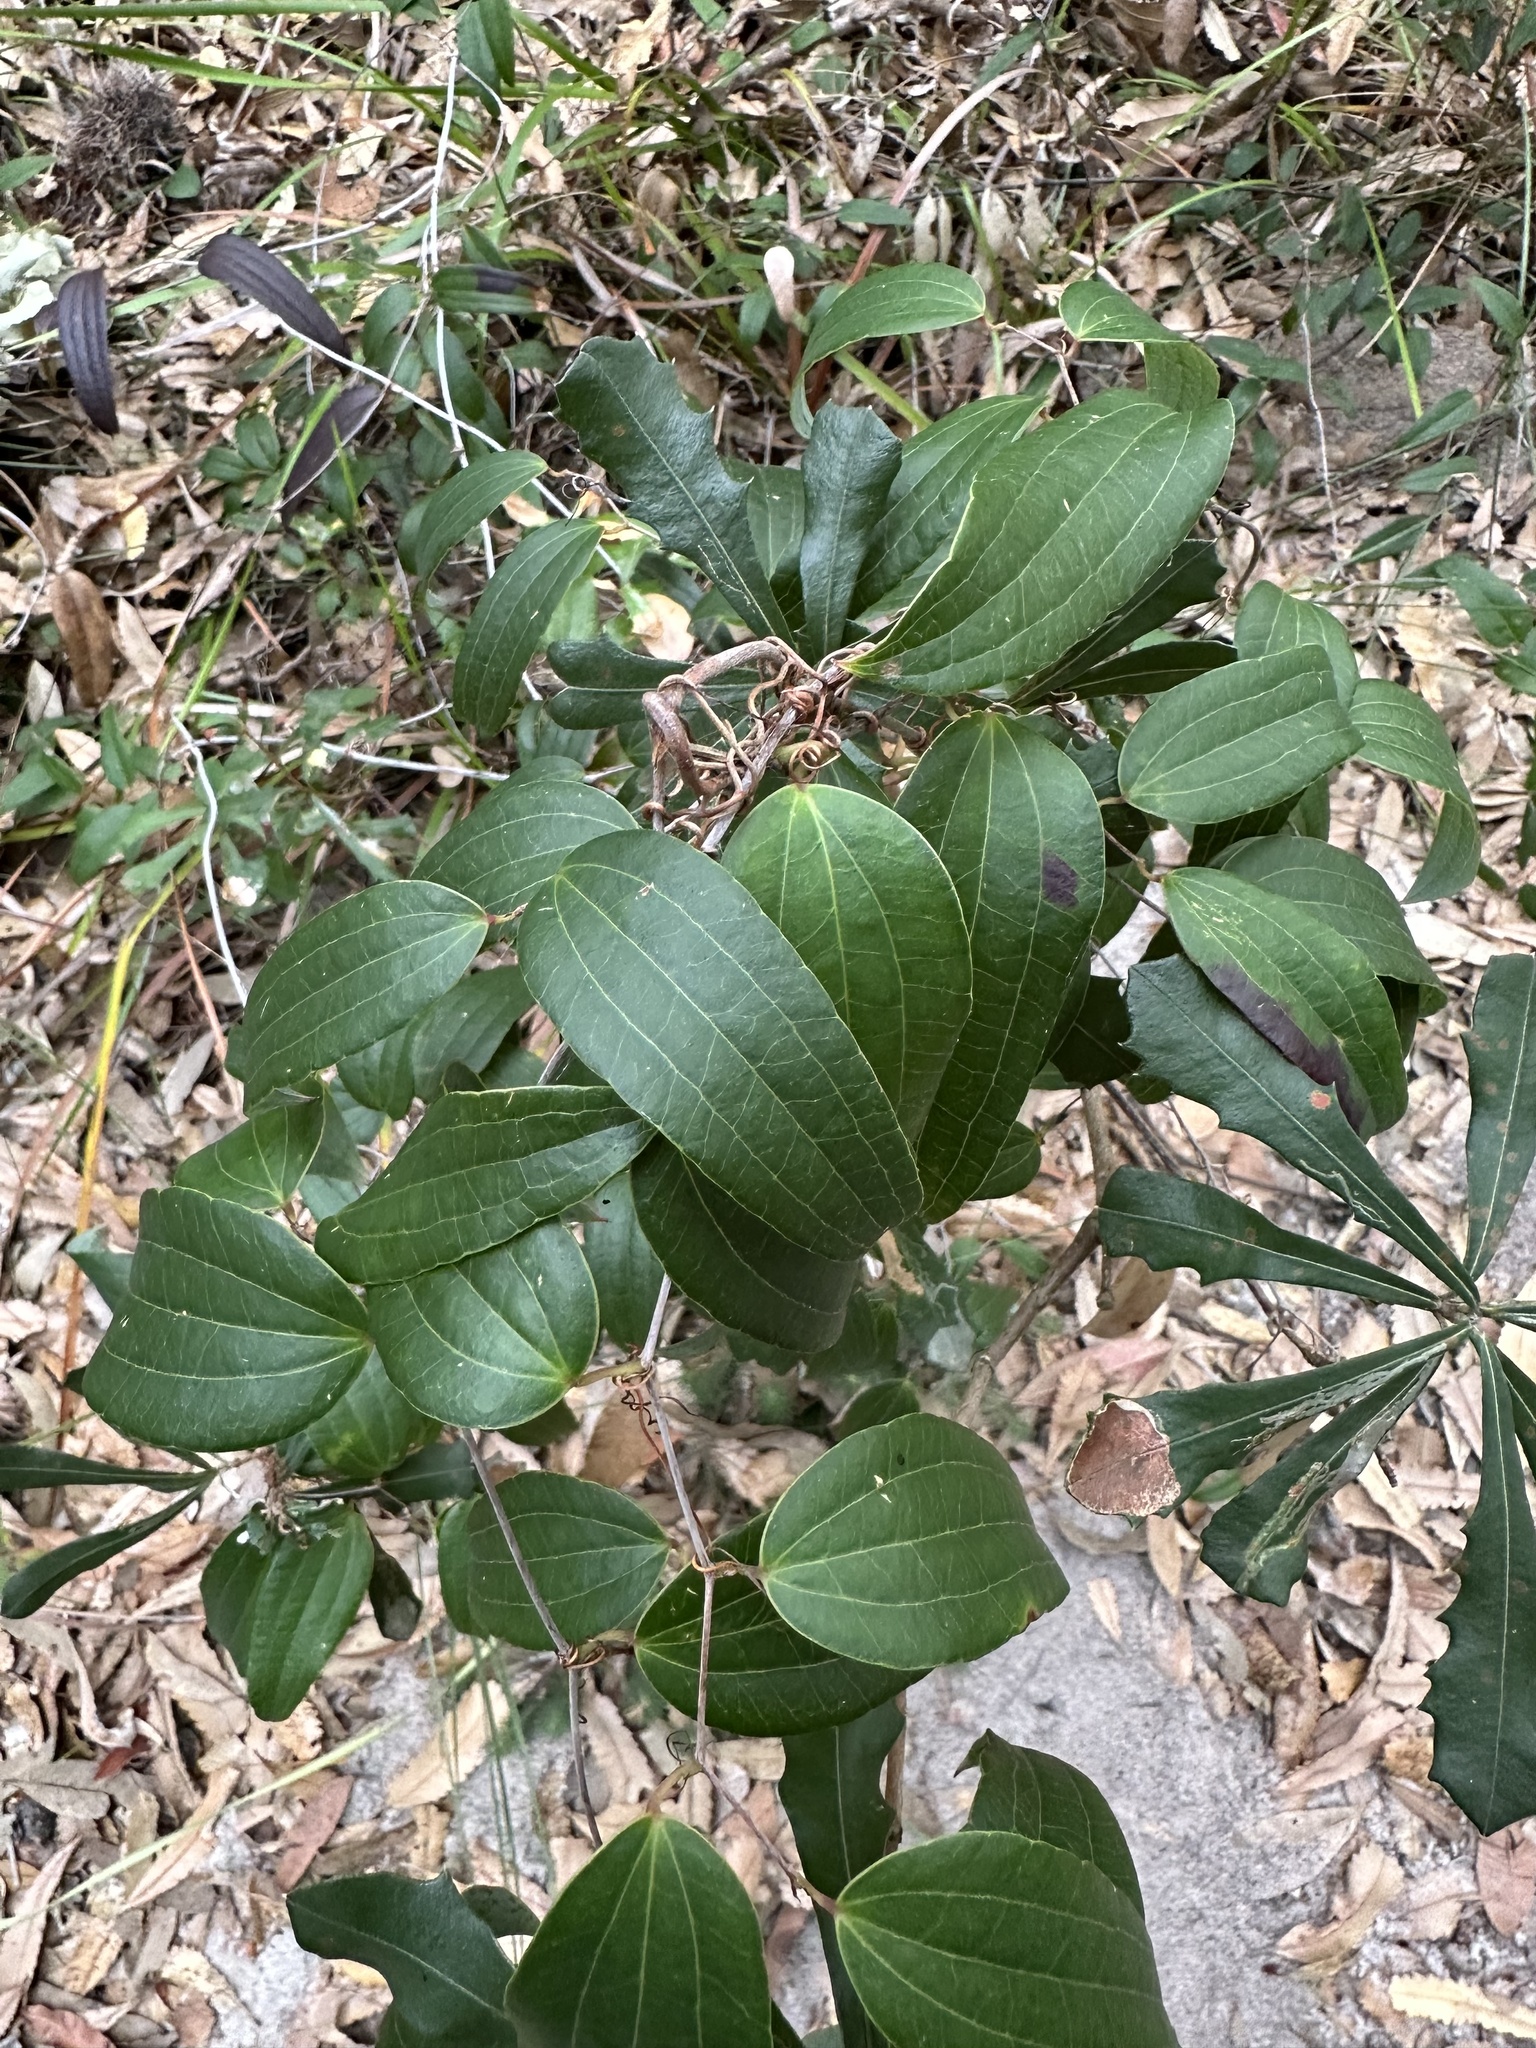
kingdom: Plantae
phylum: Tracheophyta
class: Liliopsida
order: Liliales
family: Smilacaceae
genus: Smilax
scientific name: Smilax glyciphylla
